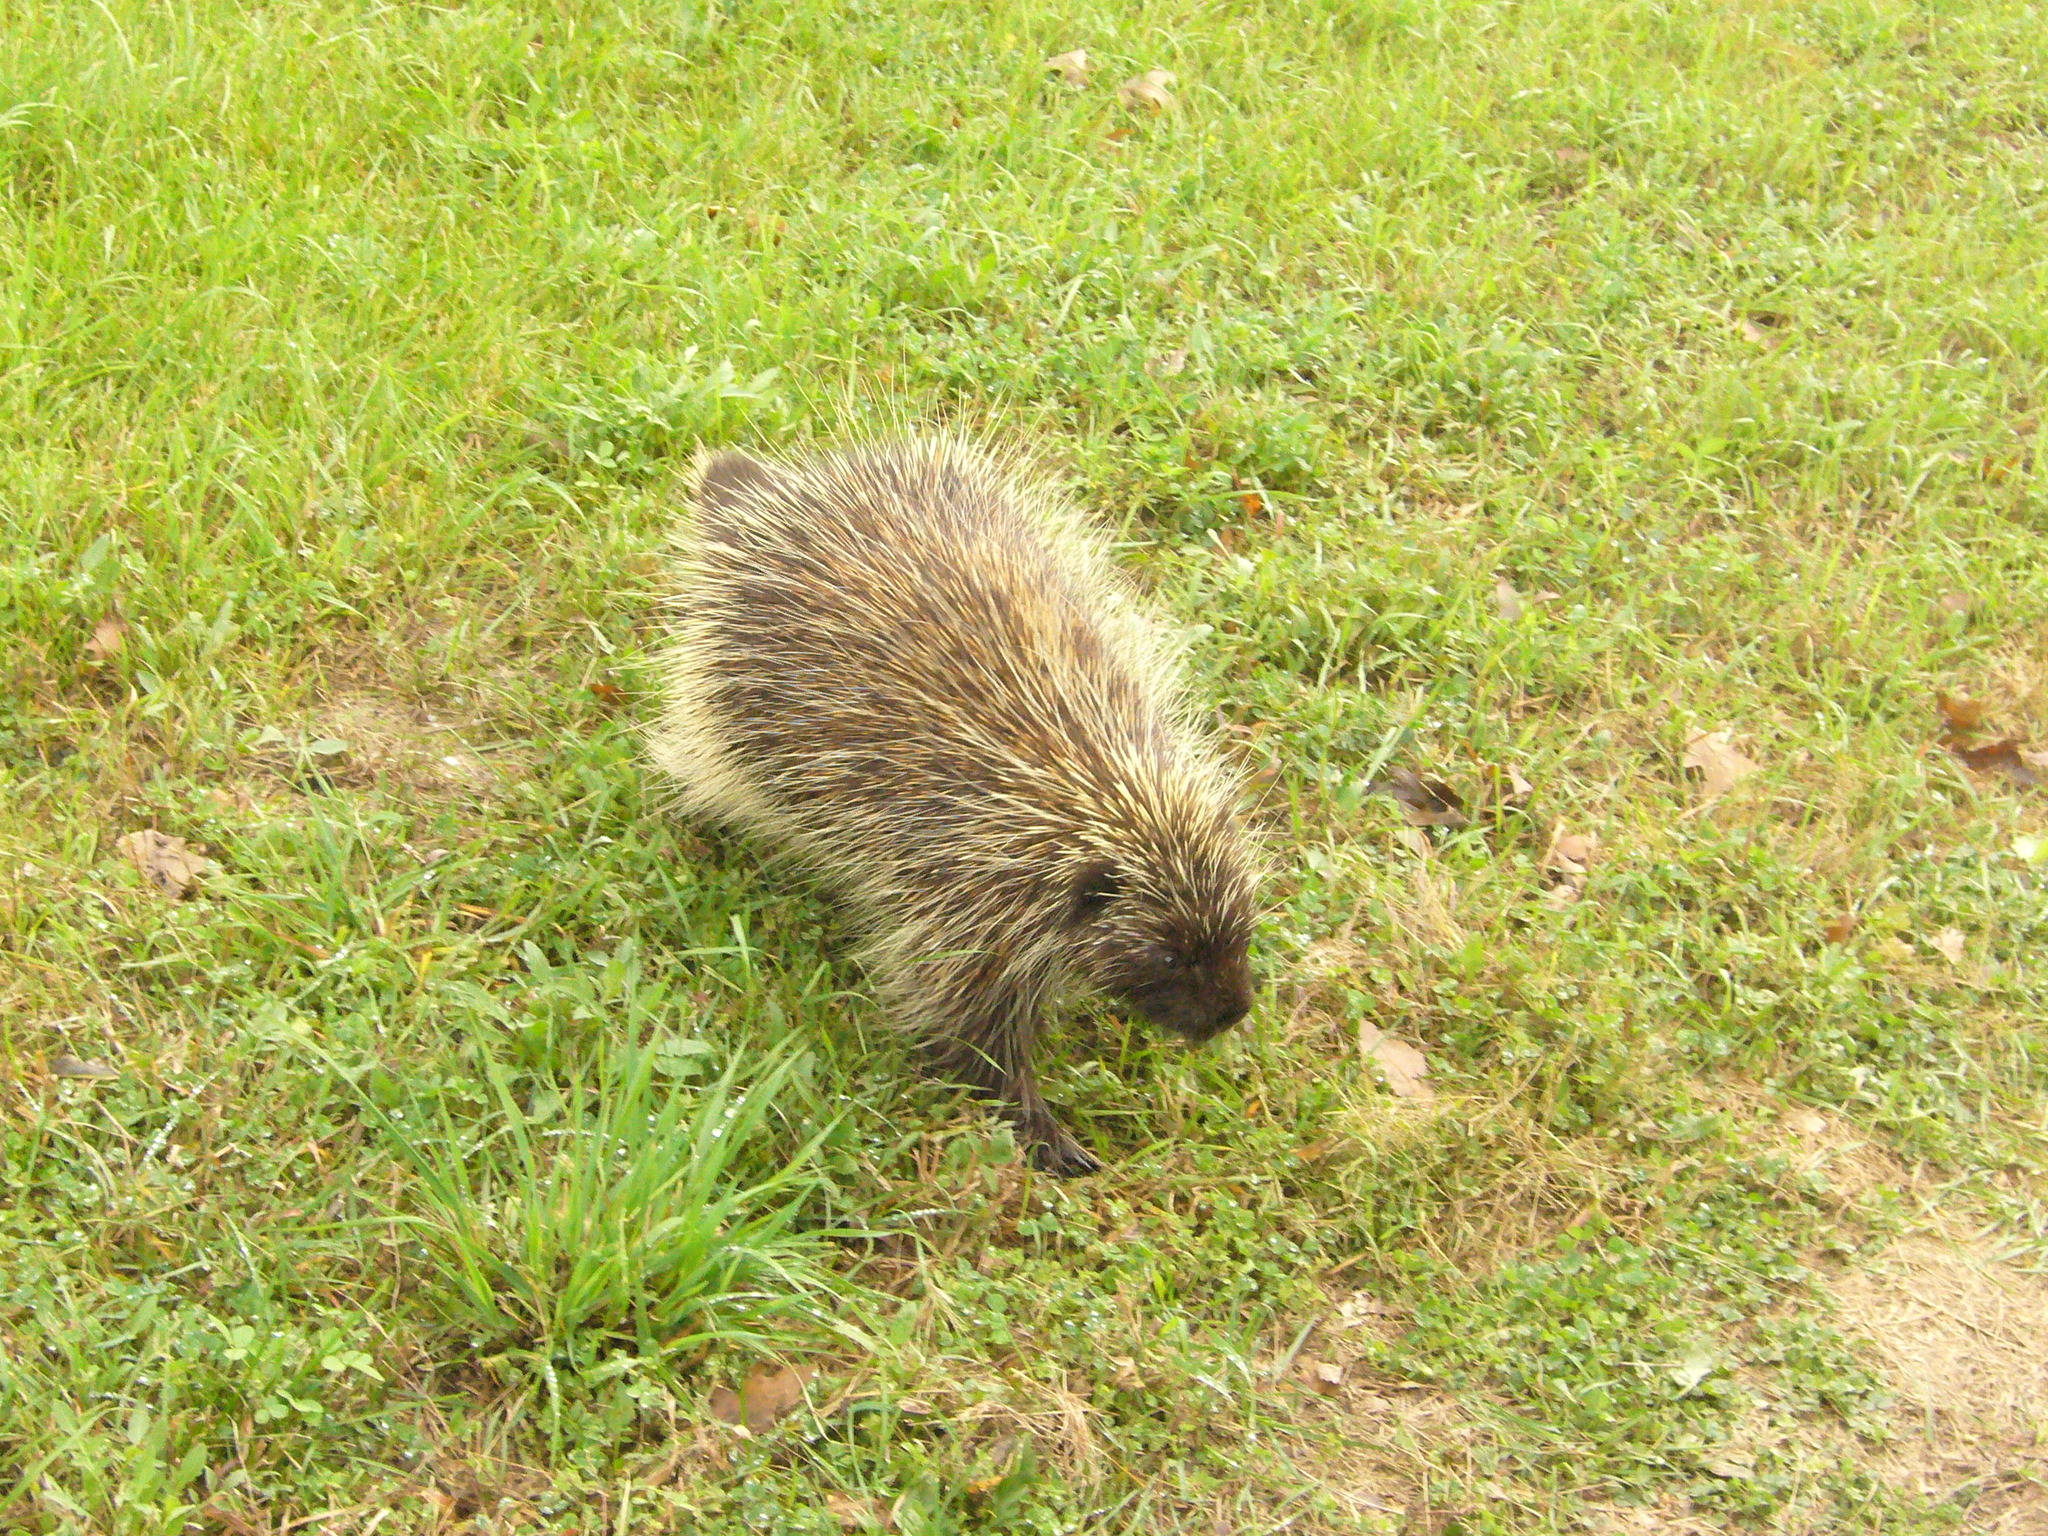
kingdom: Animalia
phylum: Chordata
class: Mammalia
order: Rodentia
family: Erethizontidae
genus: Erethizon
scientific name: Erethizon dorsatus
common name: North american porcupine
